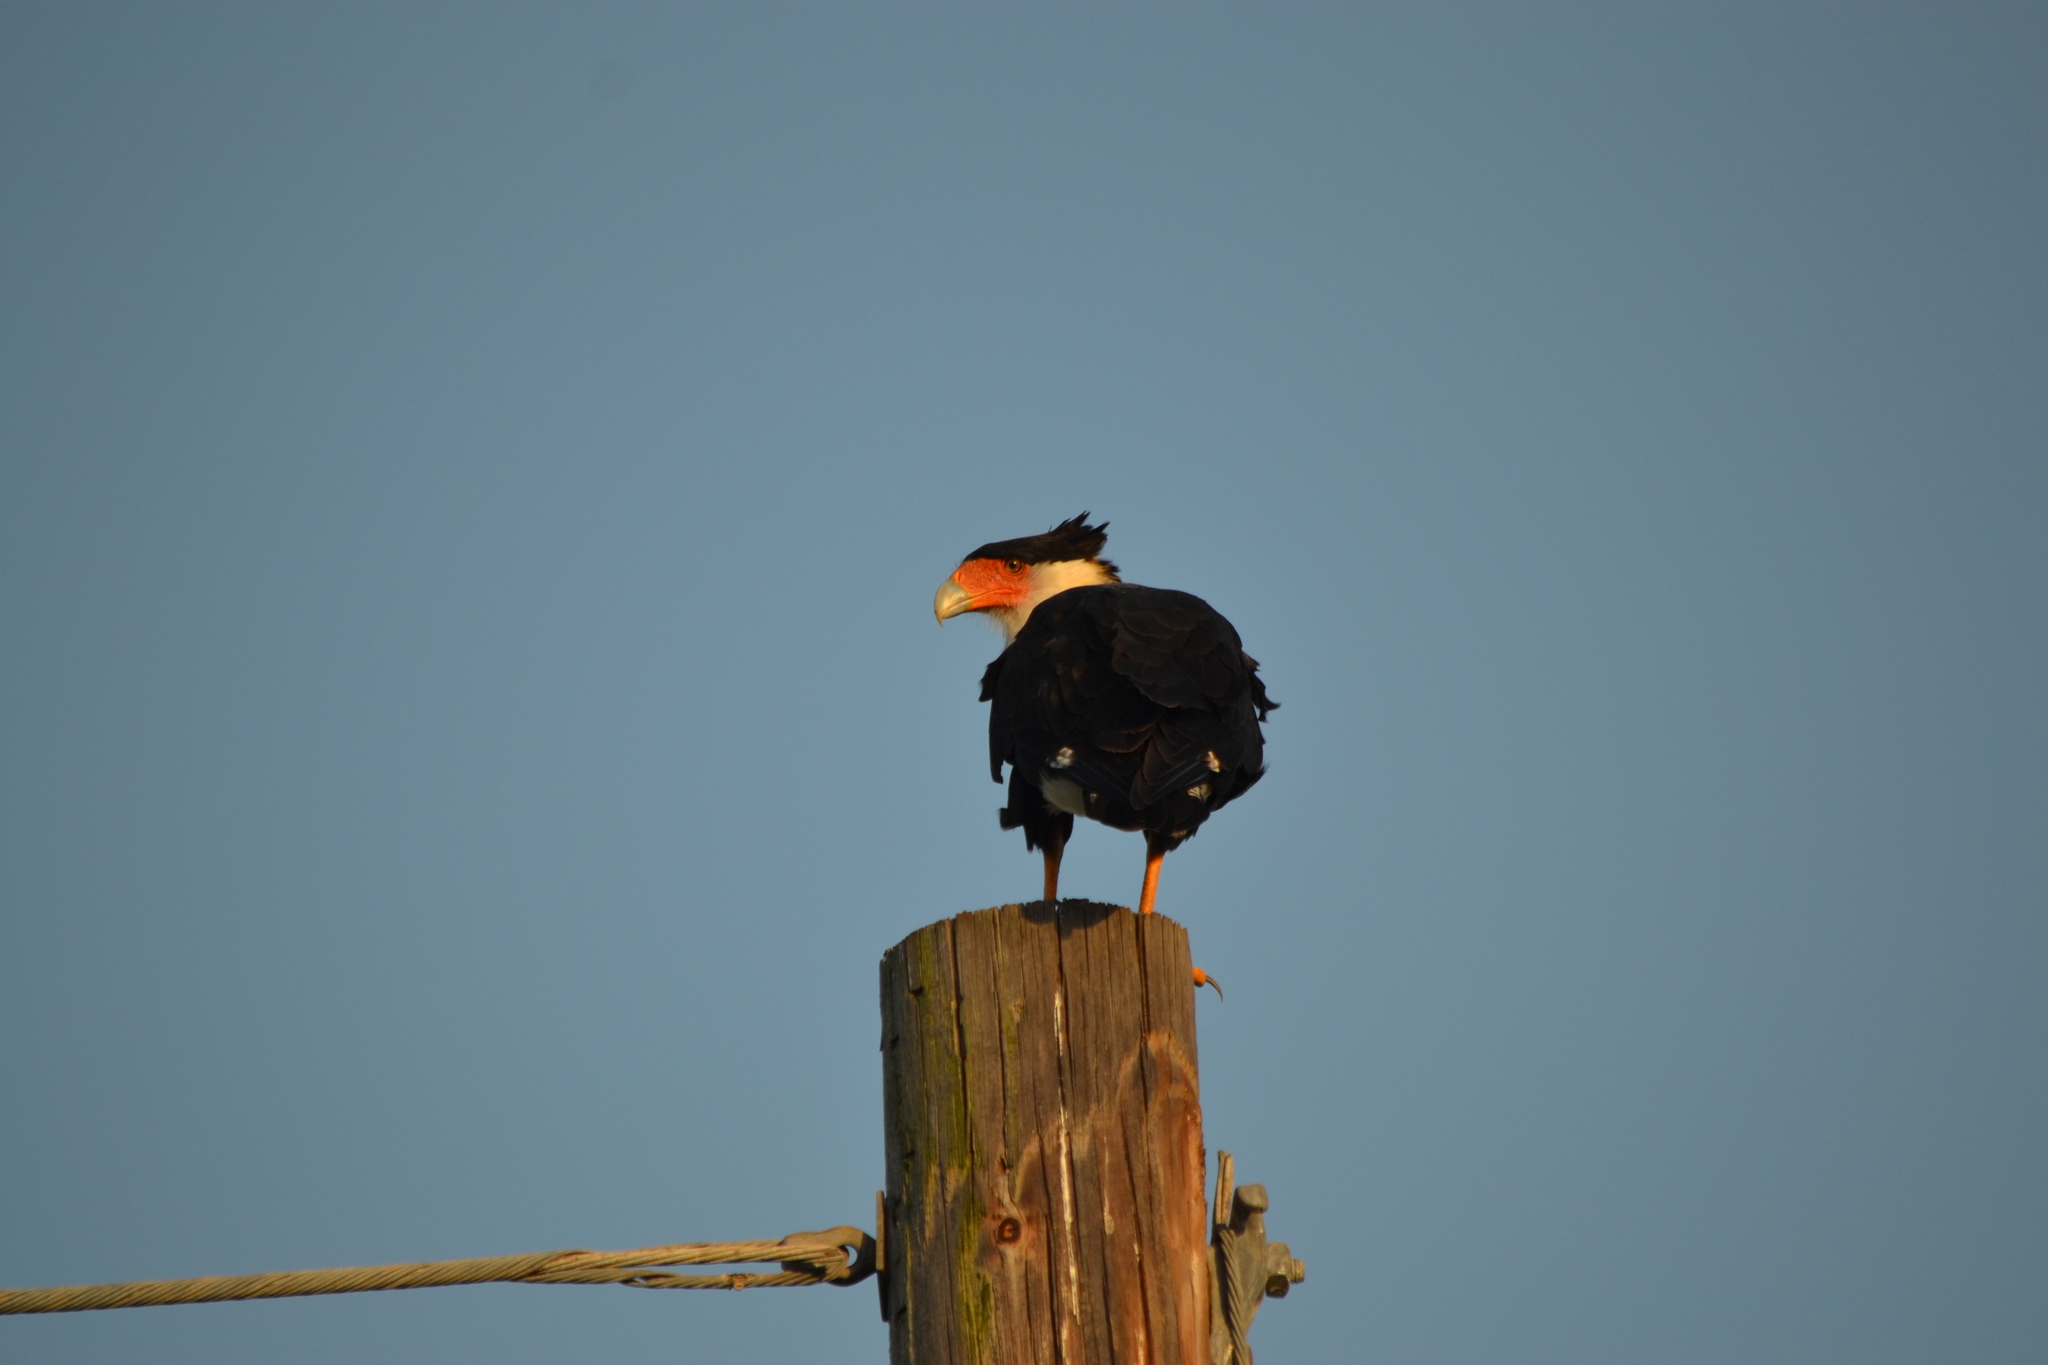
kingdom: Animalia
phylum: Chordata
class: Aves
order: Falconiformes
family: Falconidae
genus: Caracara
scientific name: Caracara plancus
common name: Southern caracara
